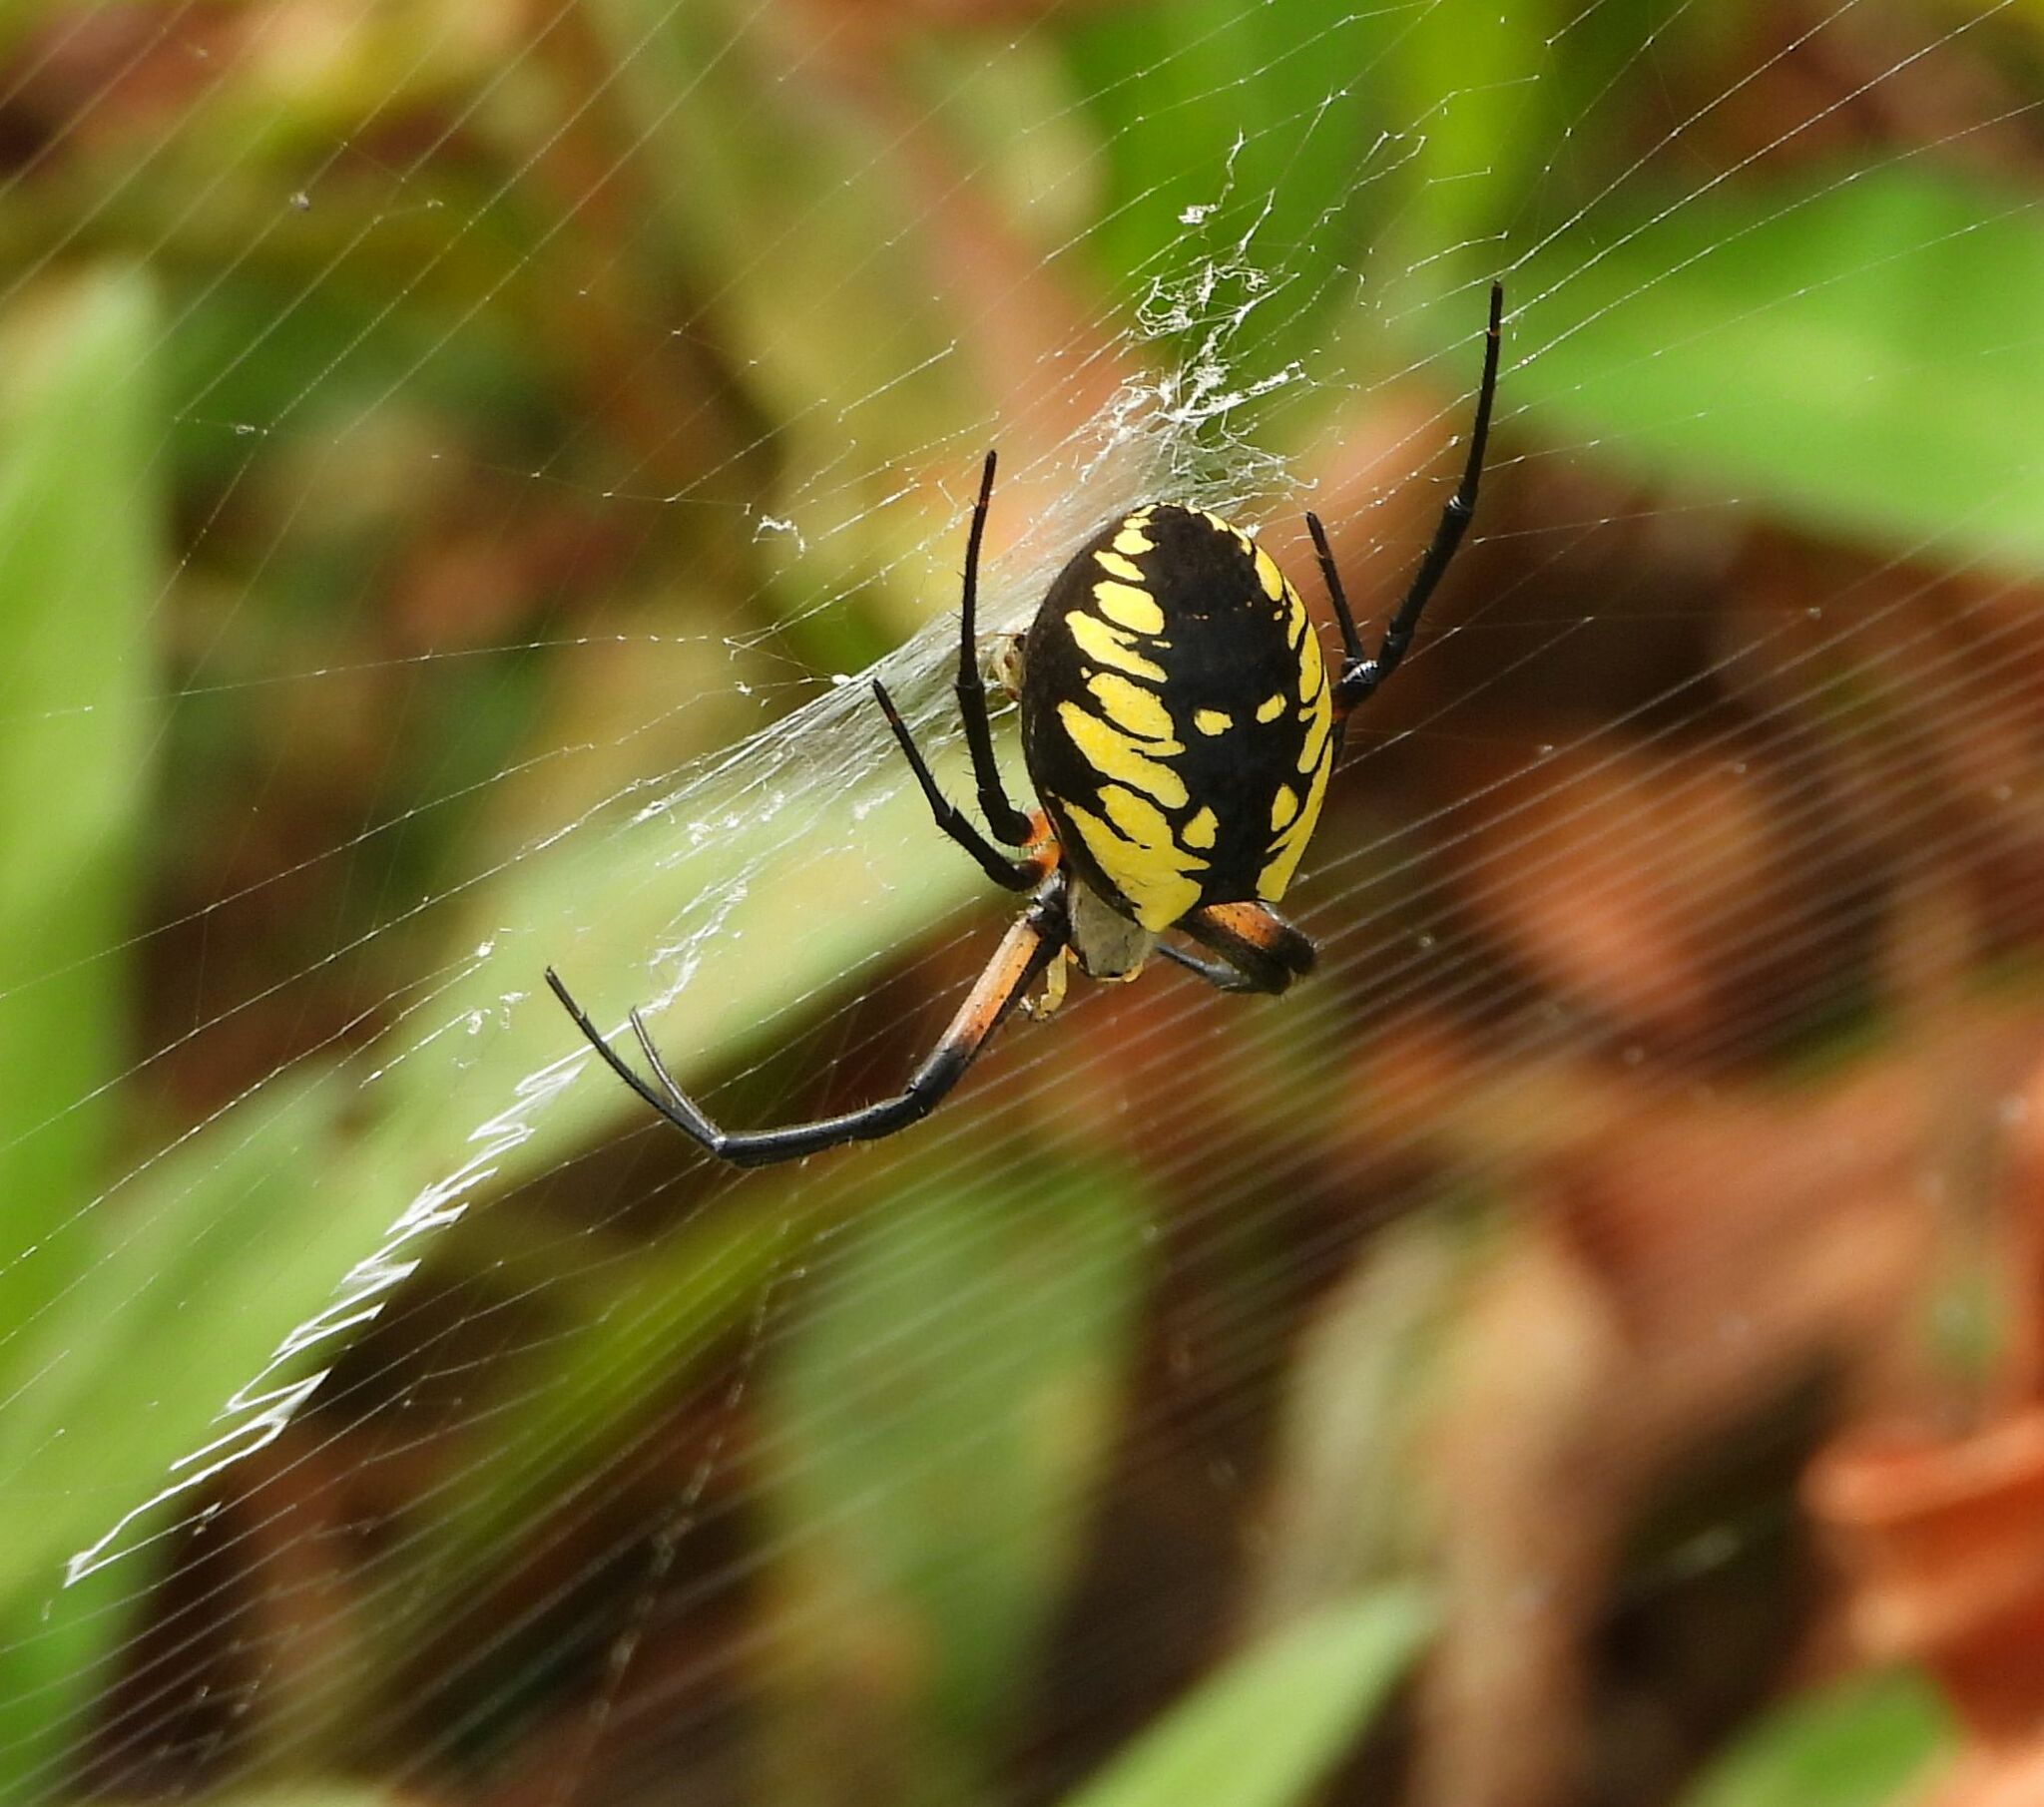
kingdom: Animalia
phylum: Arthropoda
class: Arachnida
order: Araneae
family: Araneidae
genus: Argiope
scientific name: Argiope aurantia
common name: Orb weavers
